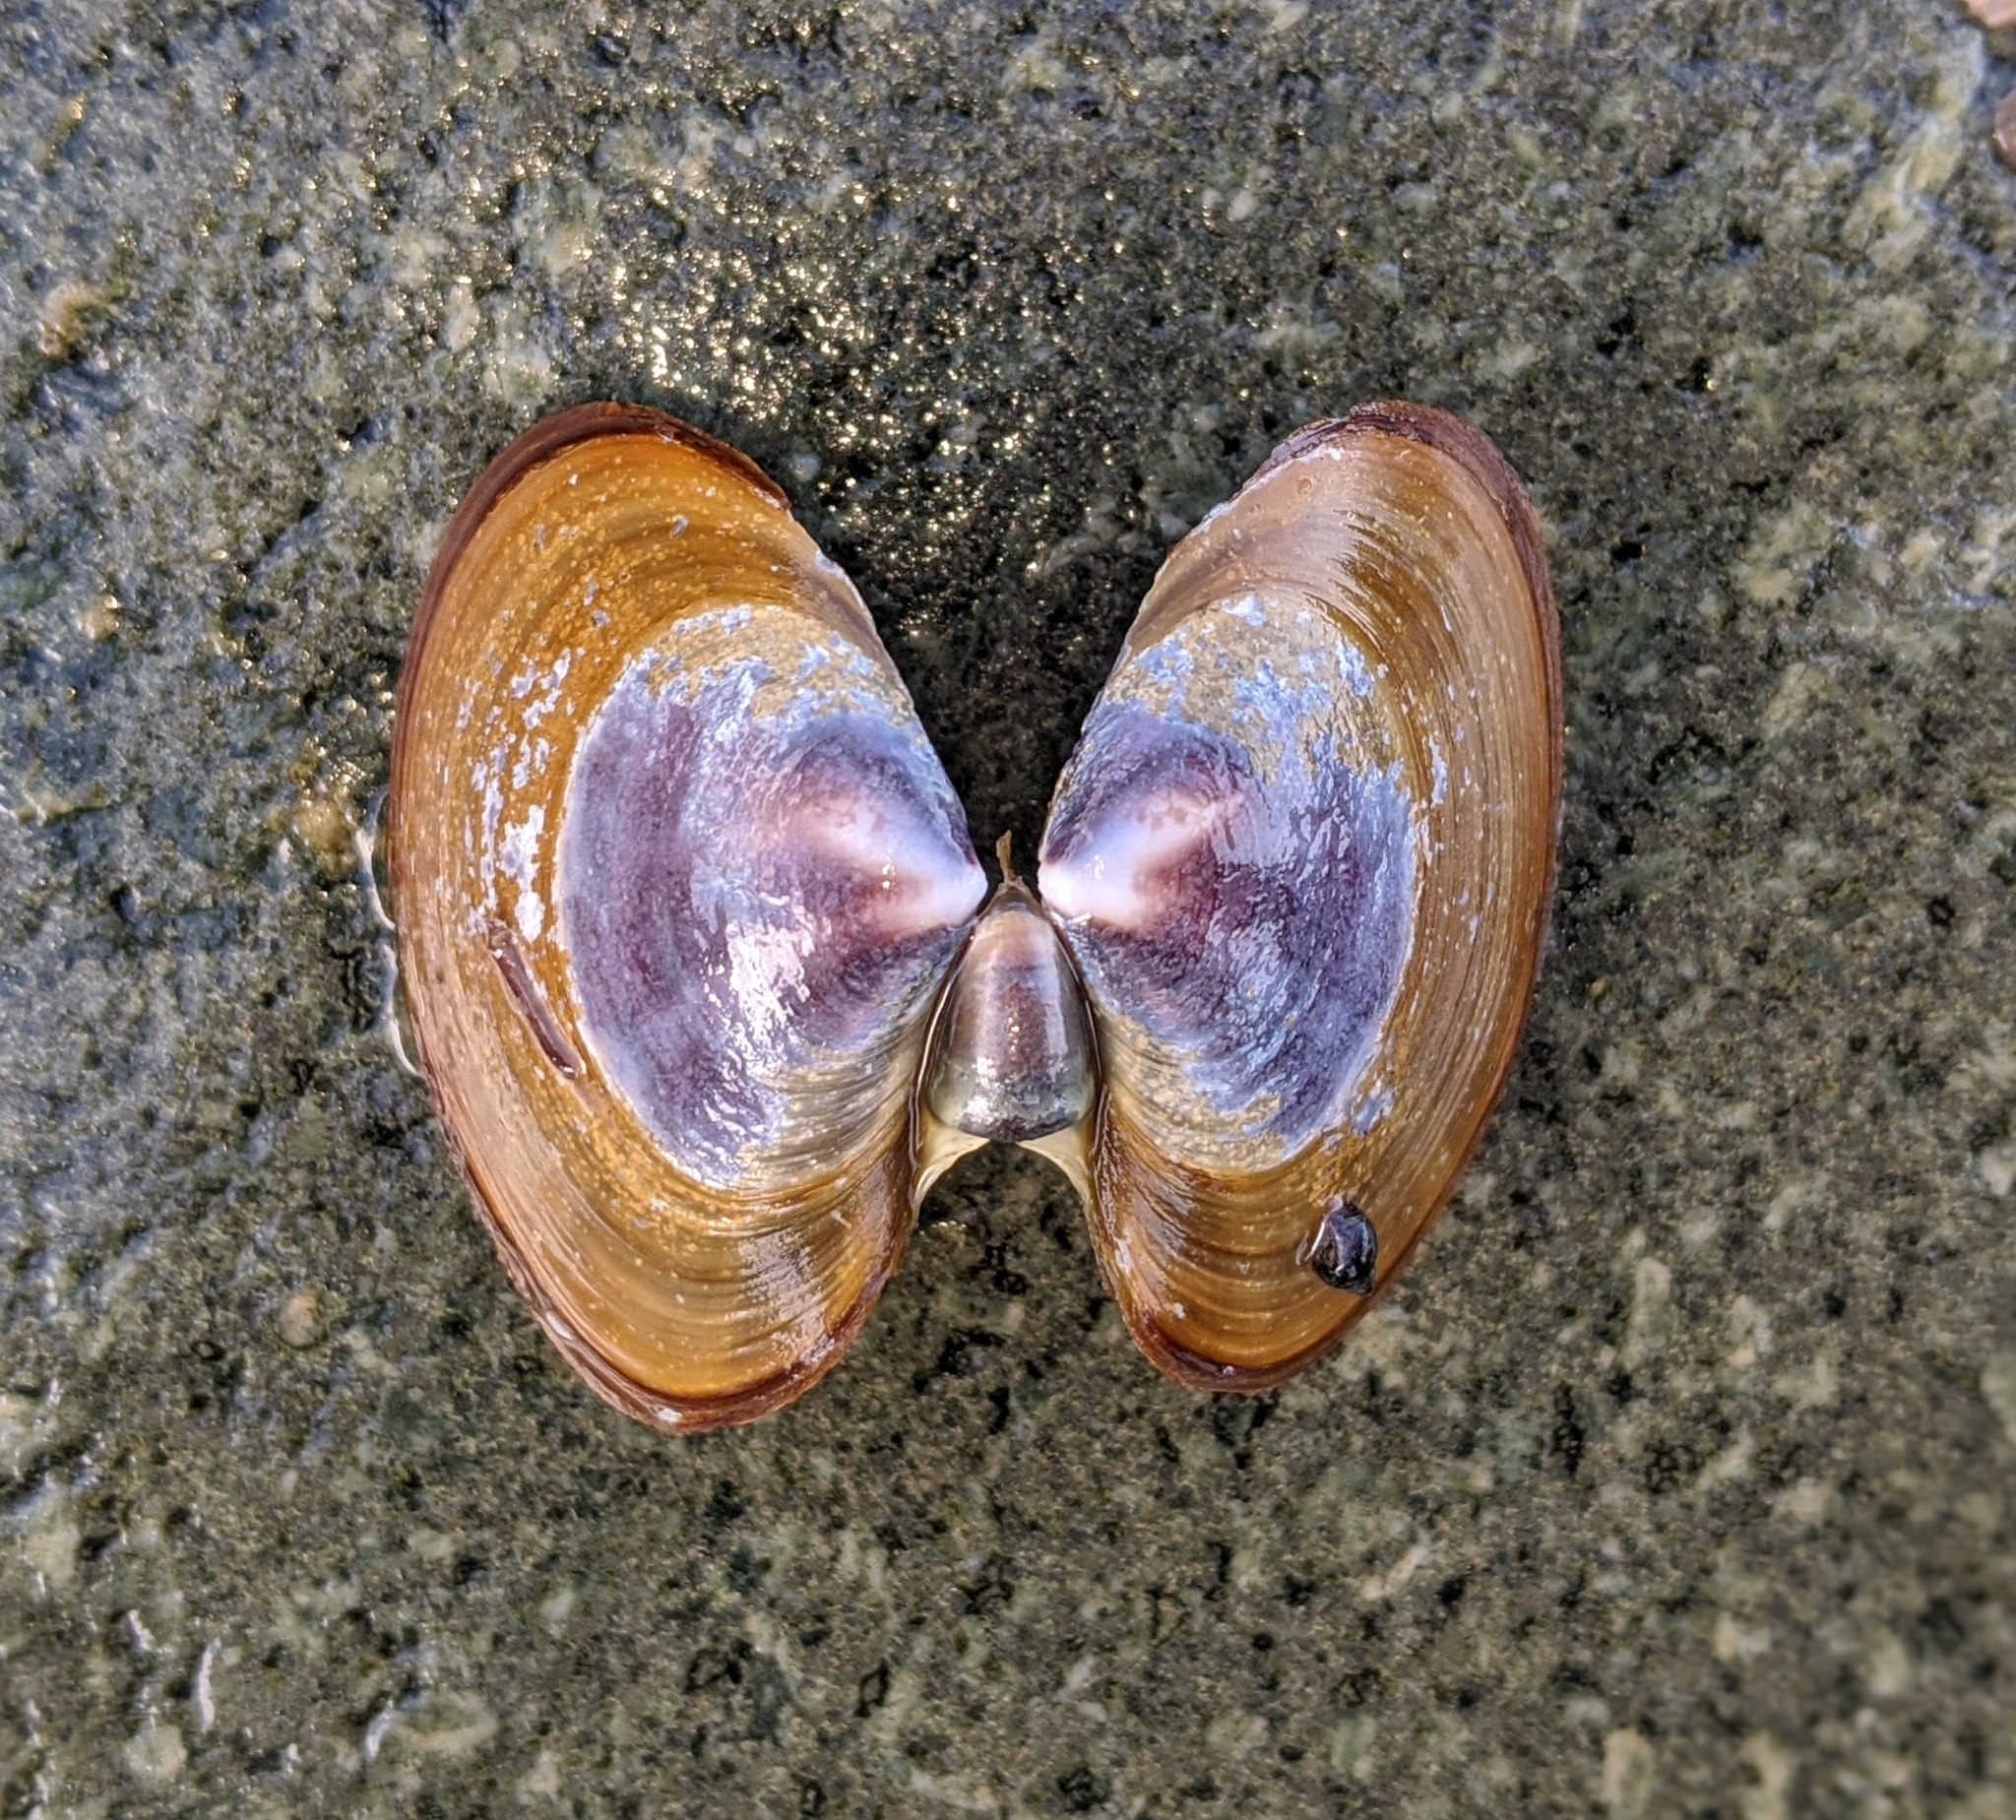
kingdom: Animalia
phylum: Mollusca
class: Bivalvia
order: Cardiida
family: Psammobiidae
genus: Nuttallia
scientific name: Nuttallia obscurata
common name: Purple mahogany-clam
